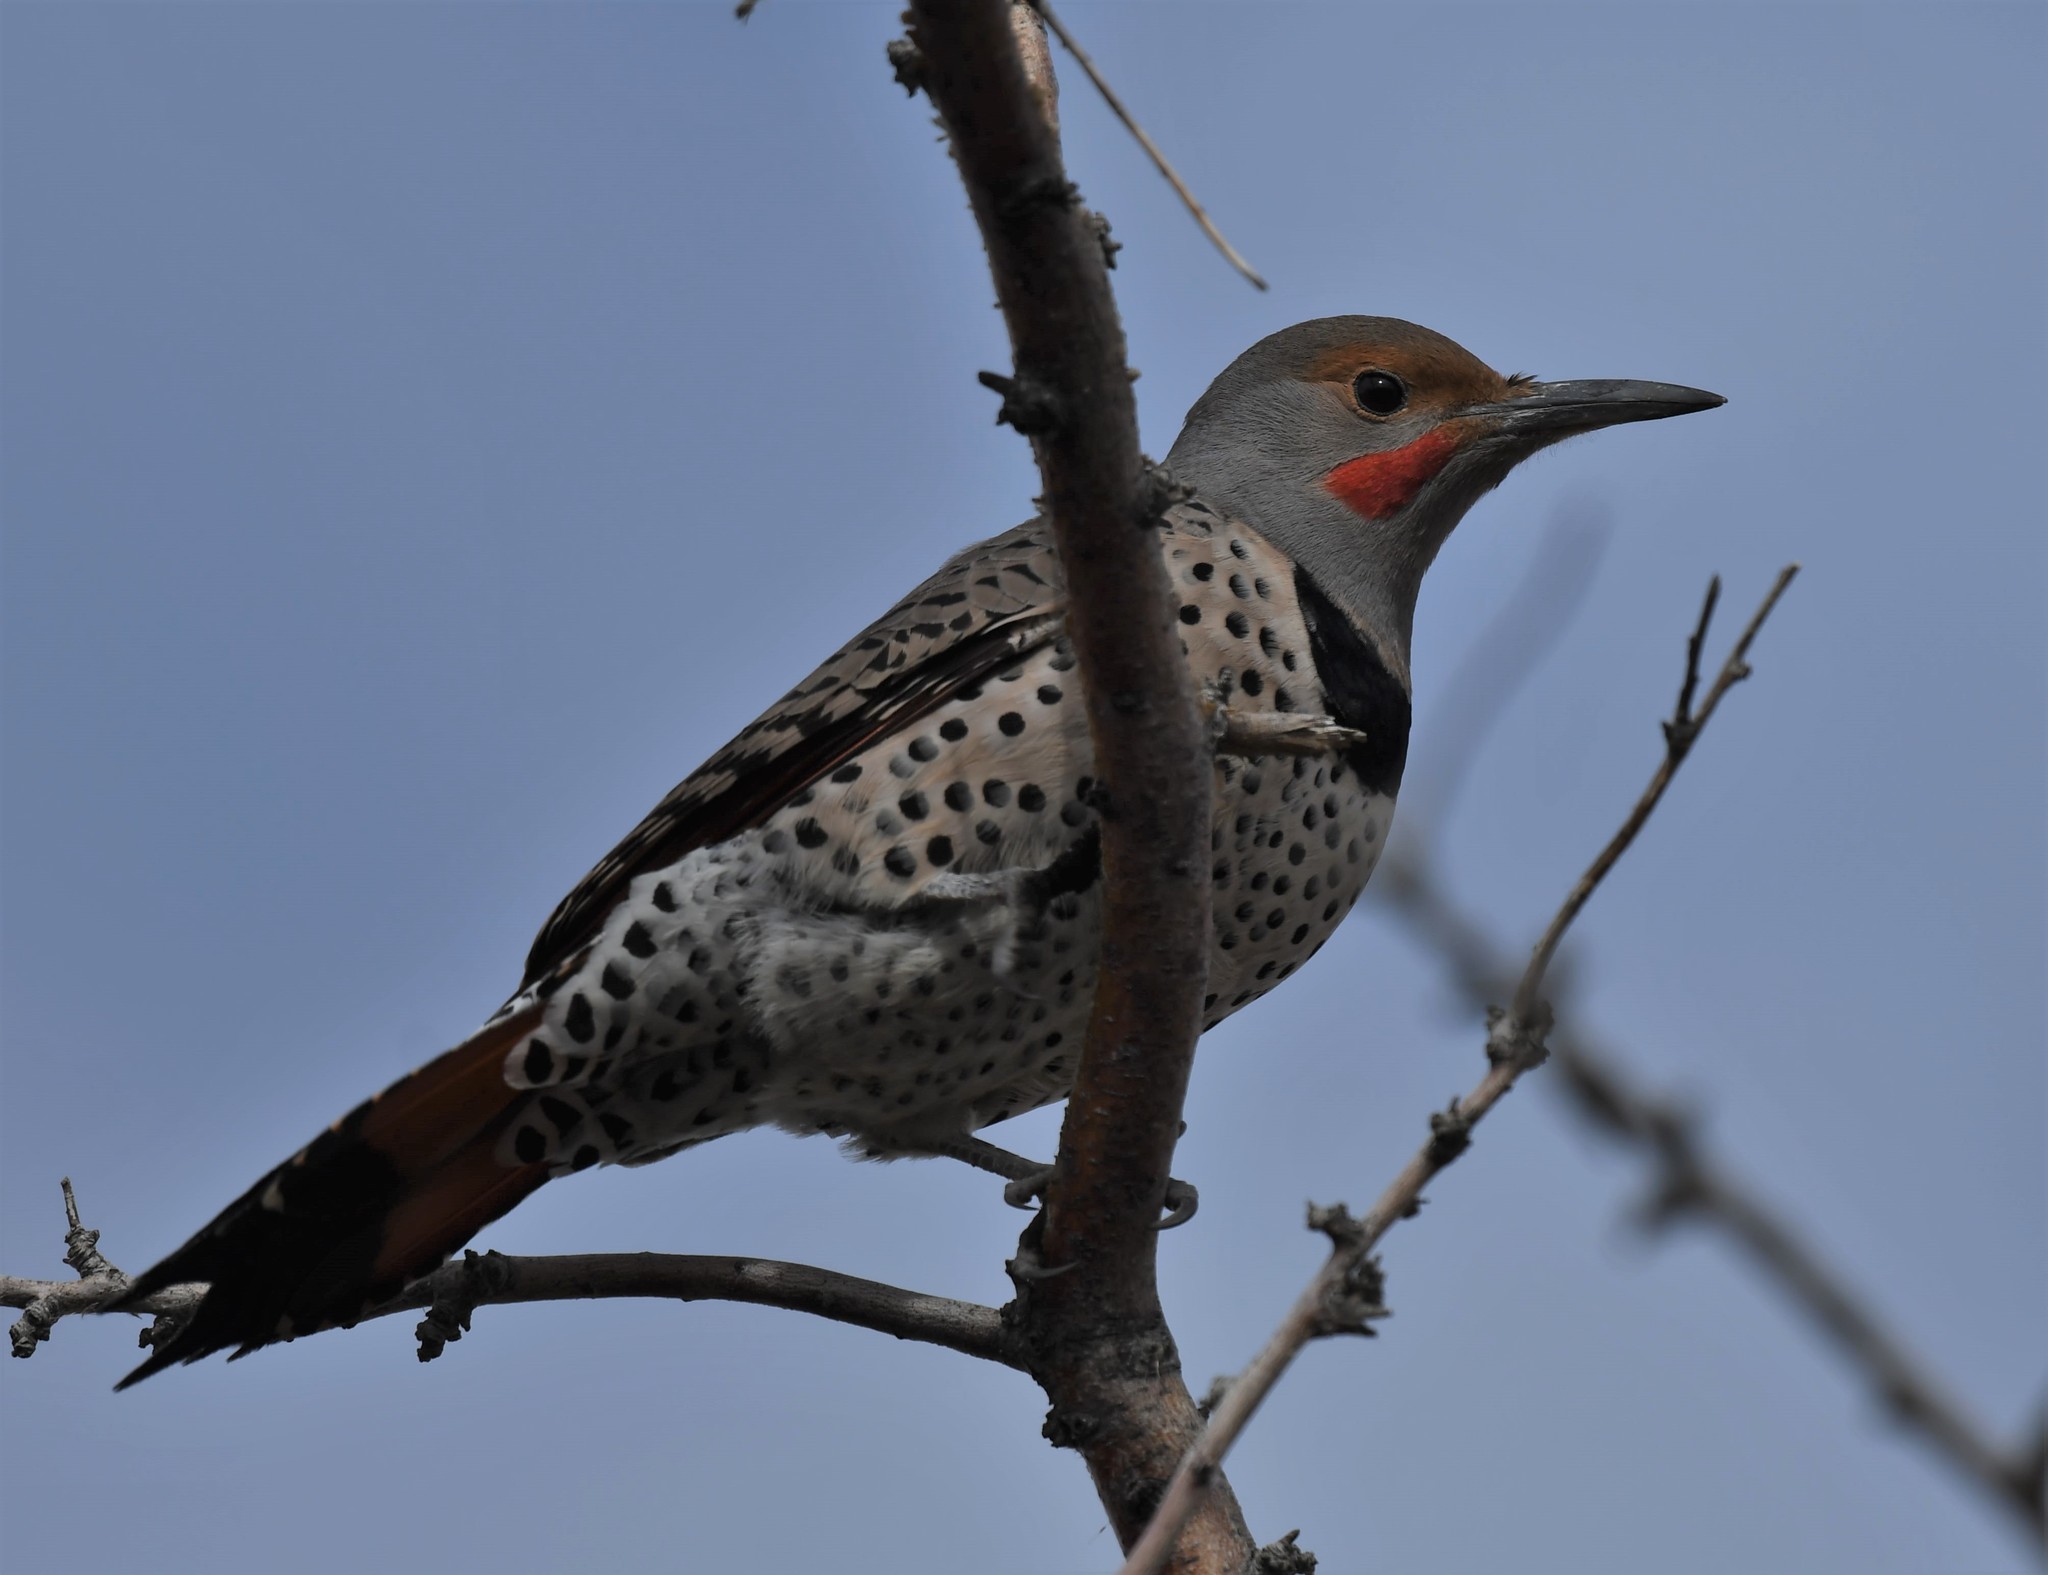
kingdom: Animalia
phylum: Chordata
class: Aves
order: Piciformes
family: Picidae
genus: Colaptes
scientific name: Colaptes auratus
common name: Northern flicker
